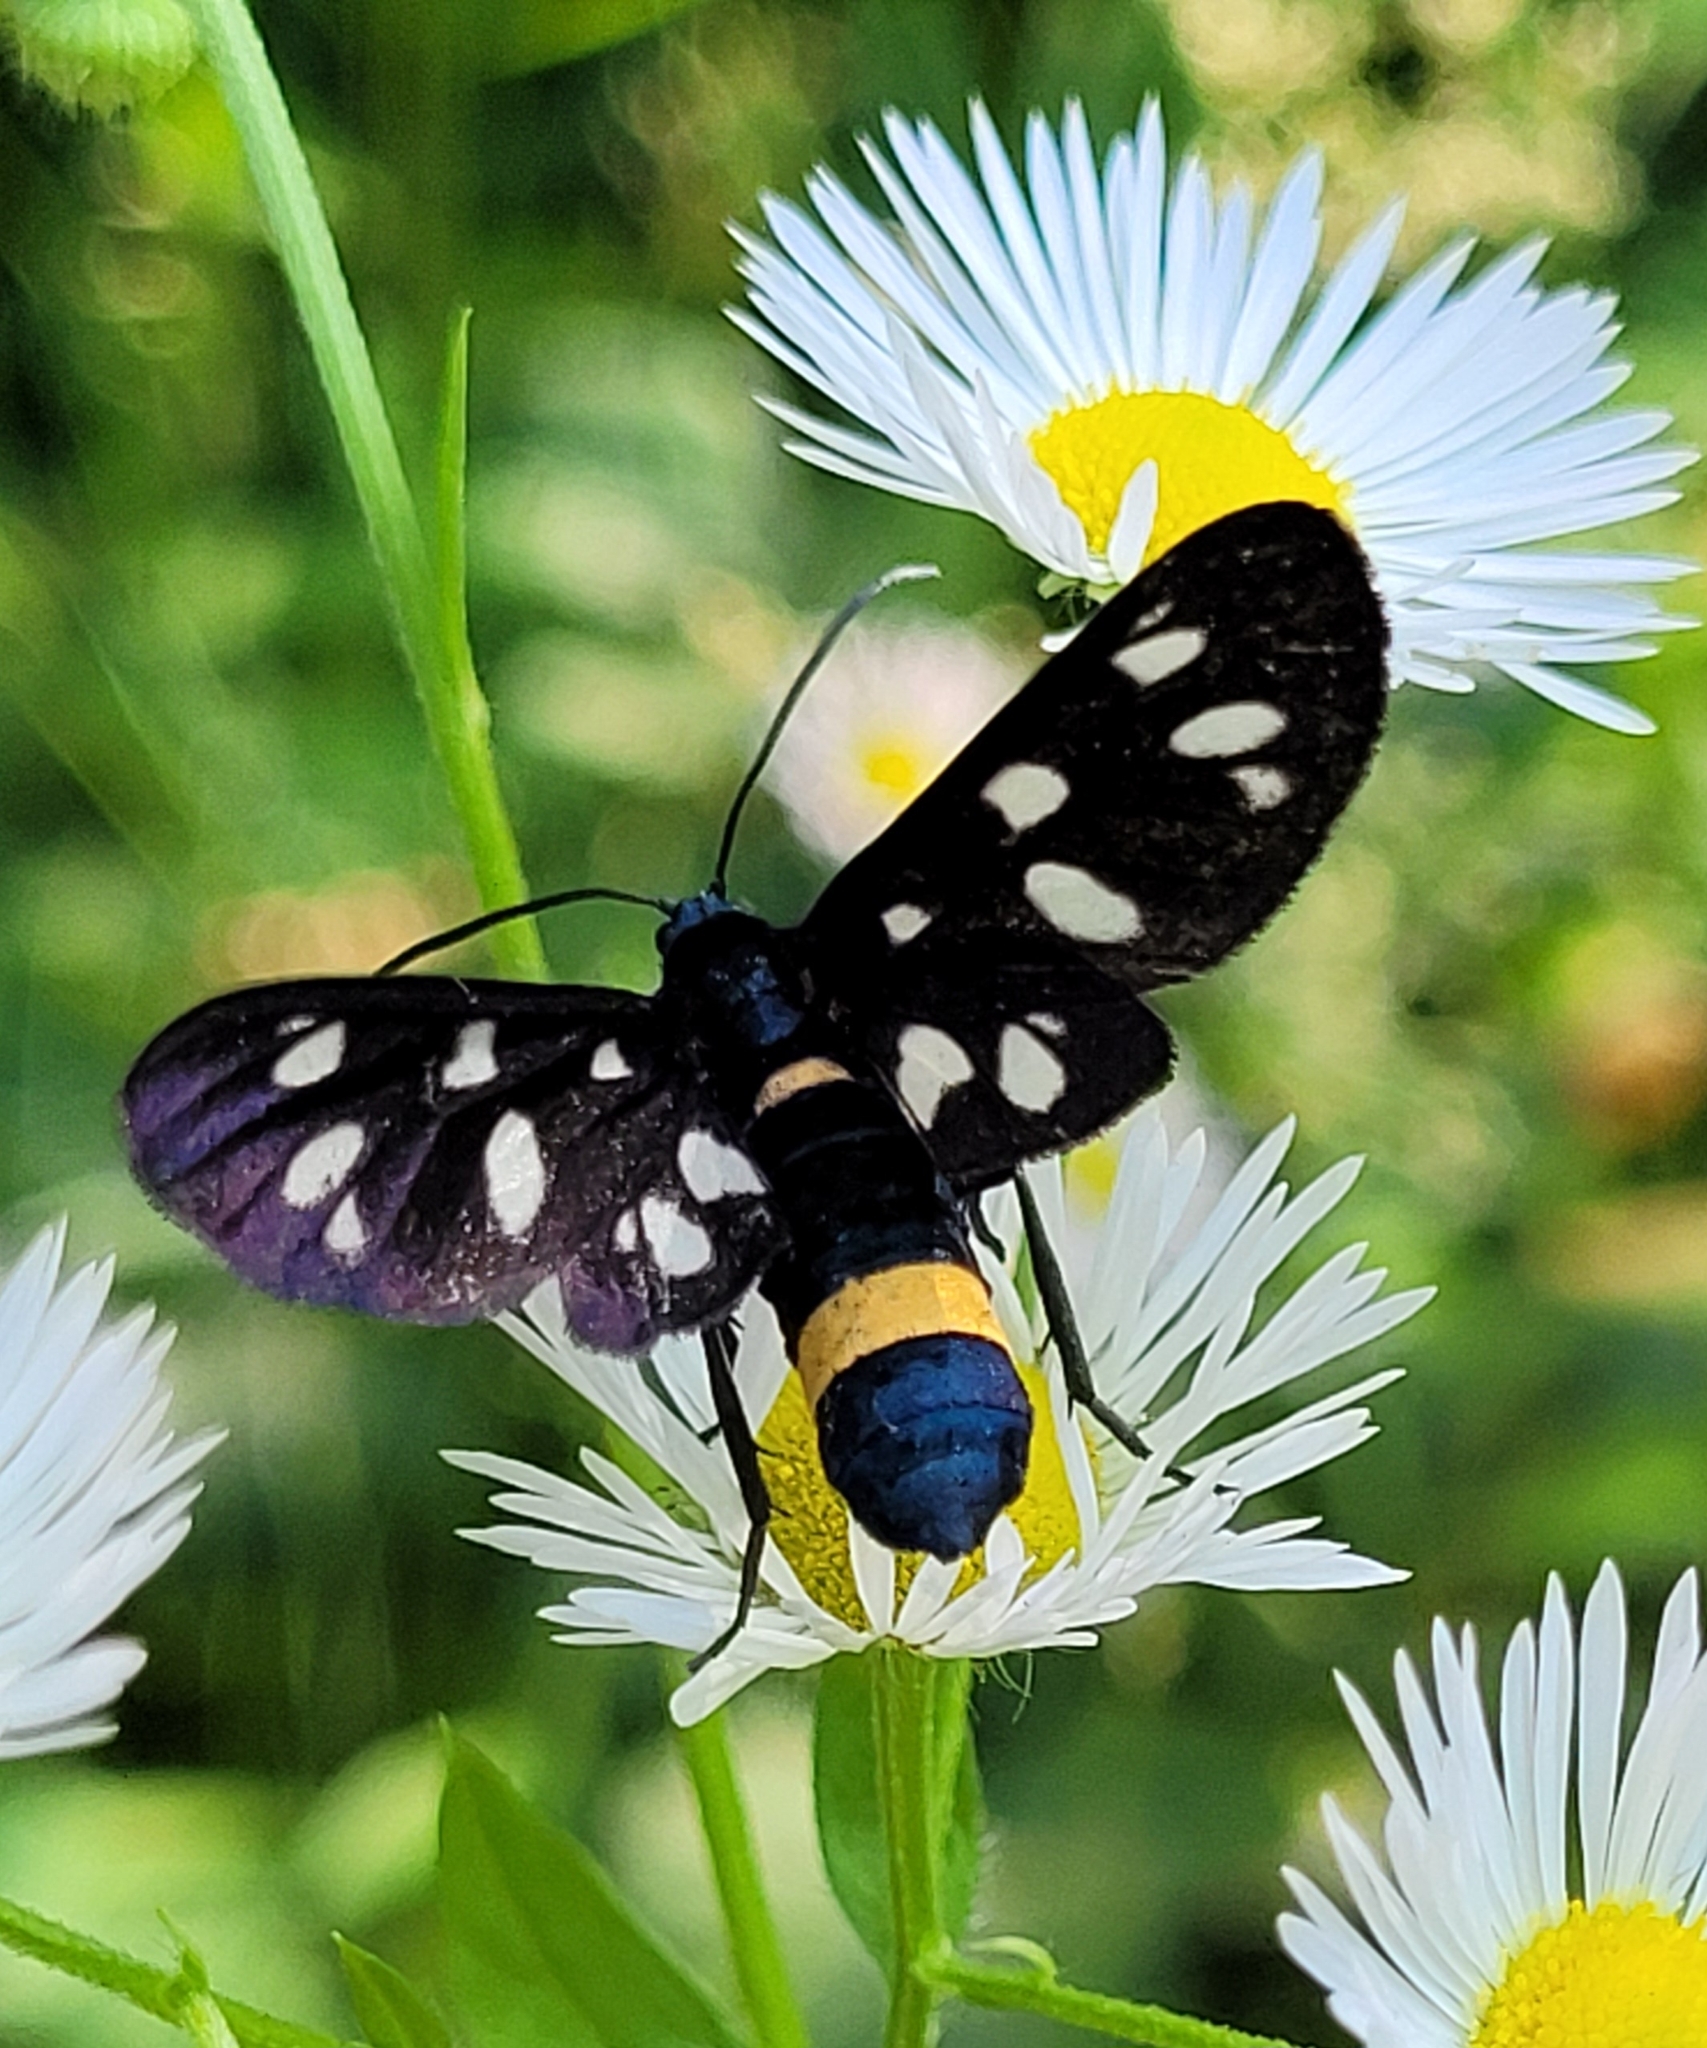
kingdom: Animalia
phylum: Arthropoda
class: Insecta
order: Lepidoptera
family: Erebidae
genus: Amata
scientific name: Amata phegea
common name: Nine-spotted
